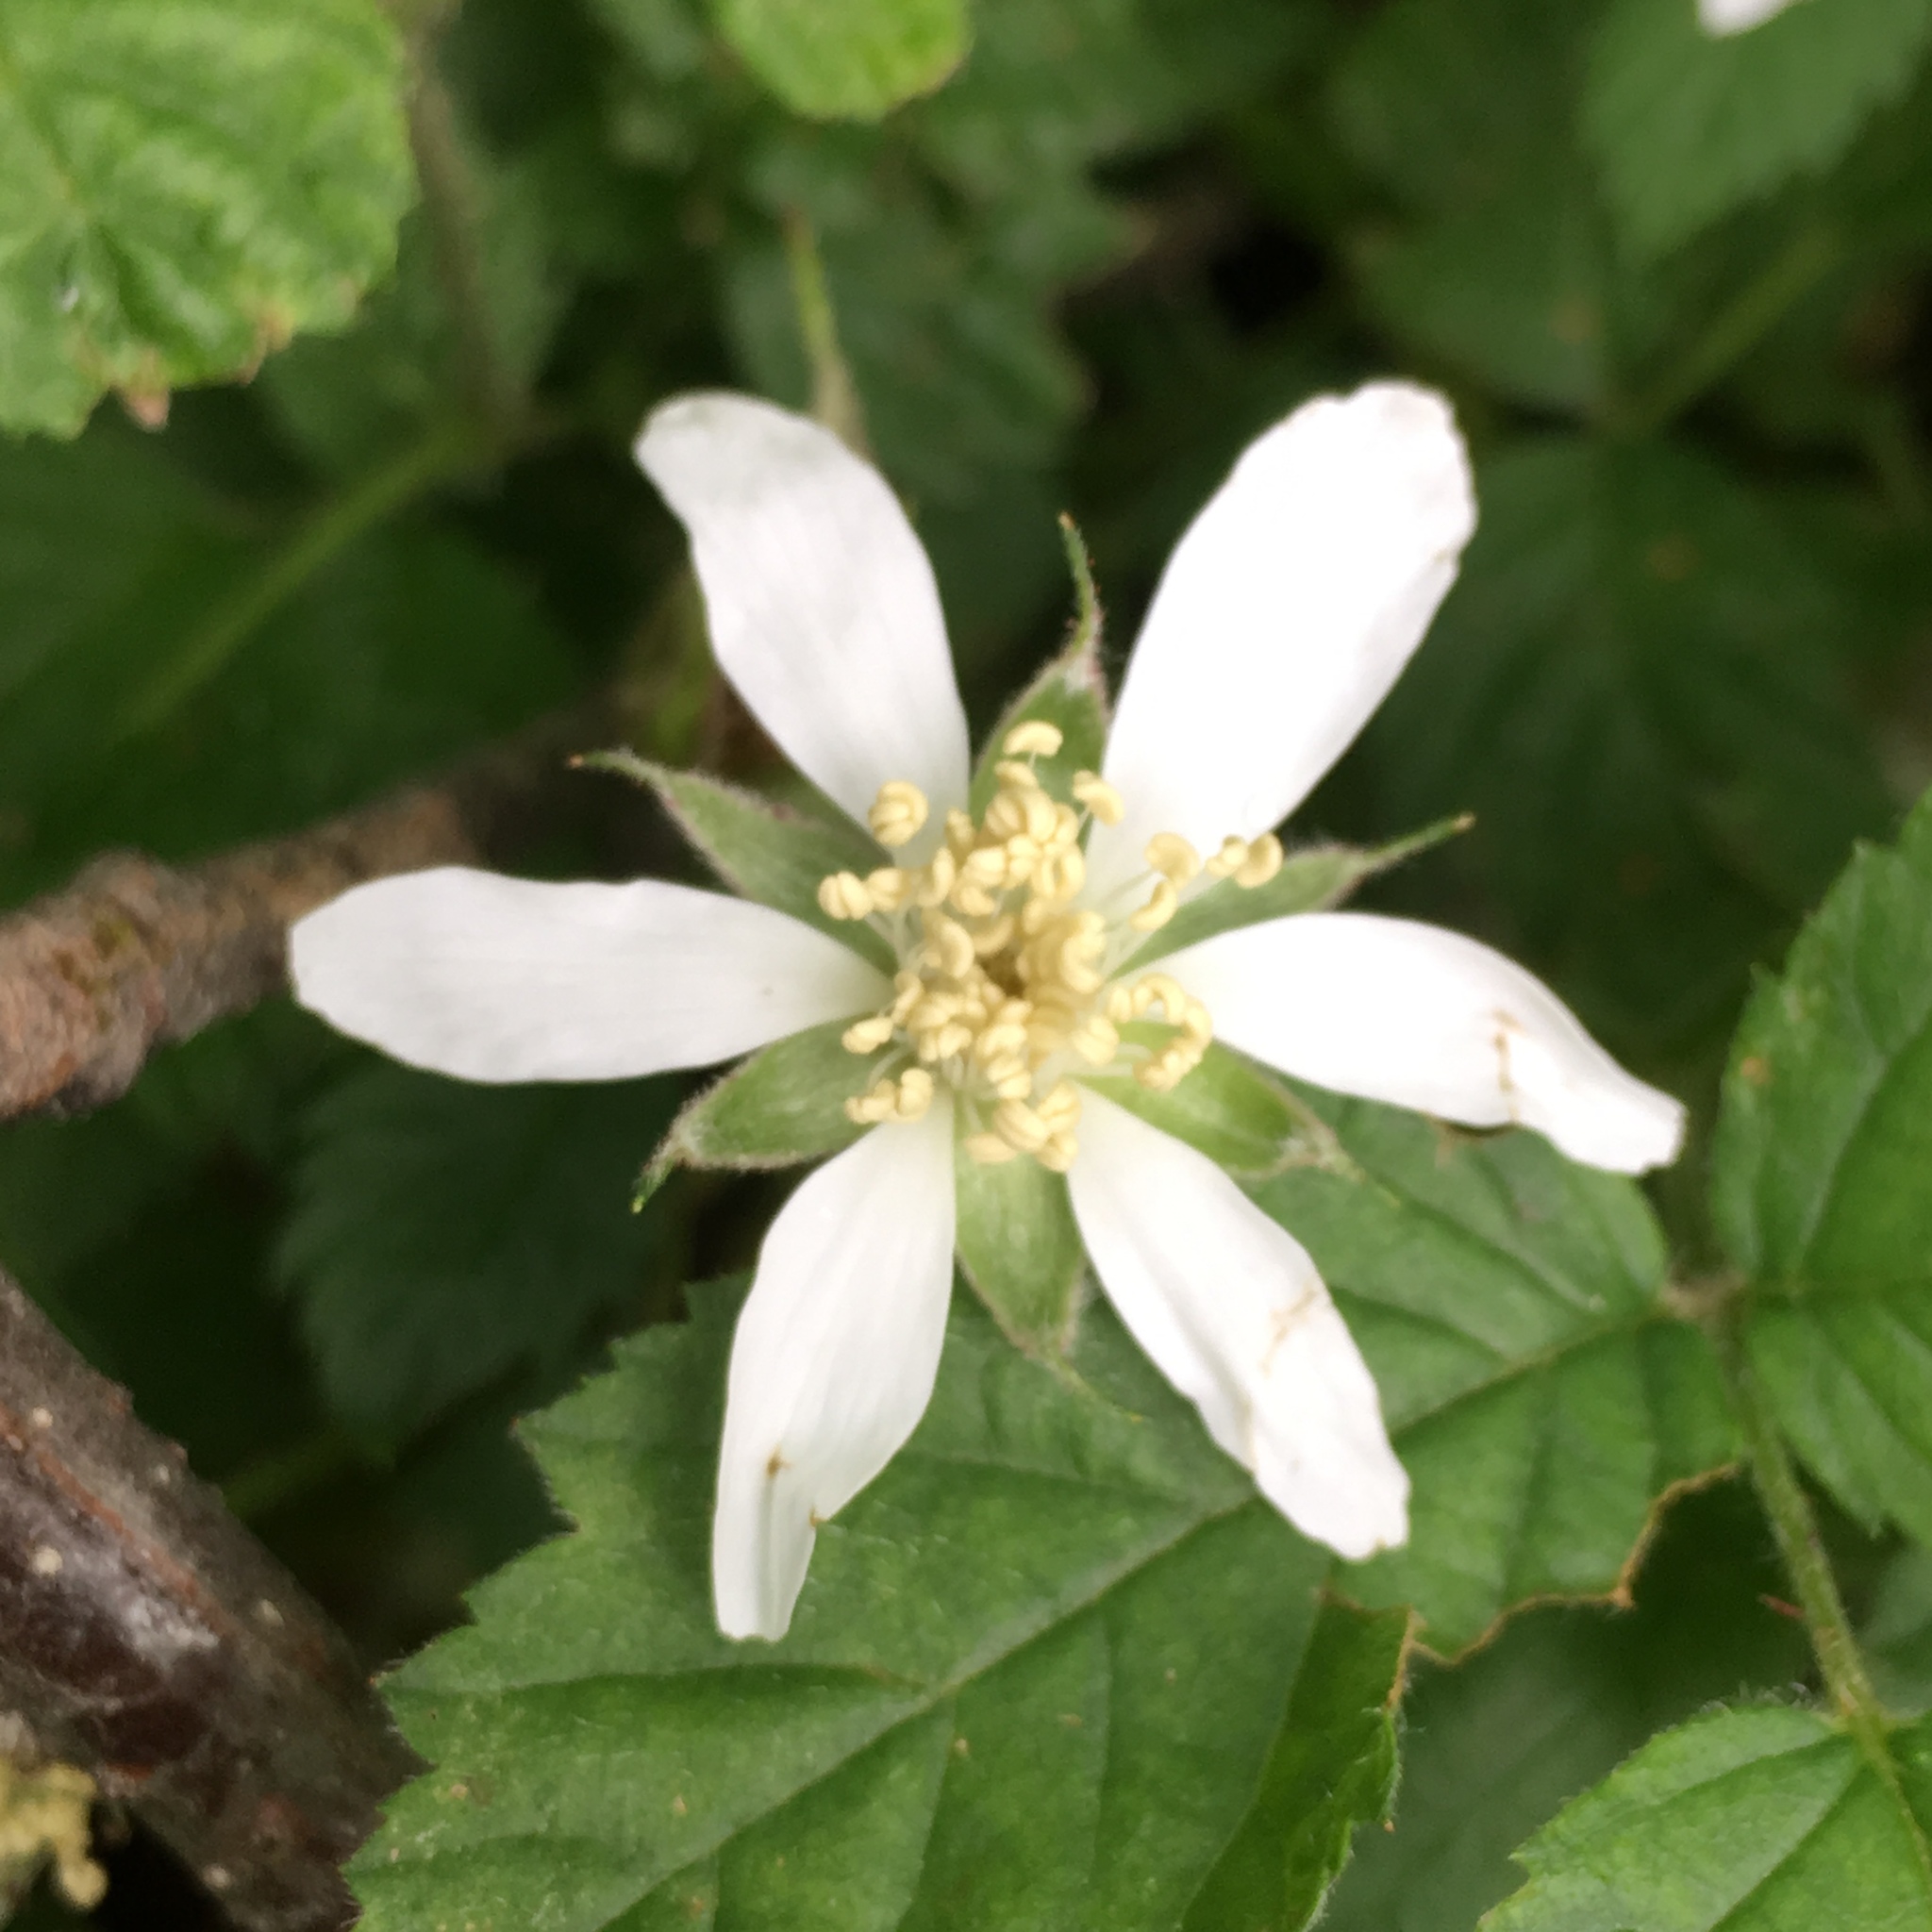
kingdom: Plantae
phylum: Tracheophyta
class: Magnoliopsida
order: Rosales
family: Rosaceae
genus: Rubus
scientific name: Rubus ursinus
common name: Pacific blackberry
